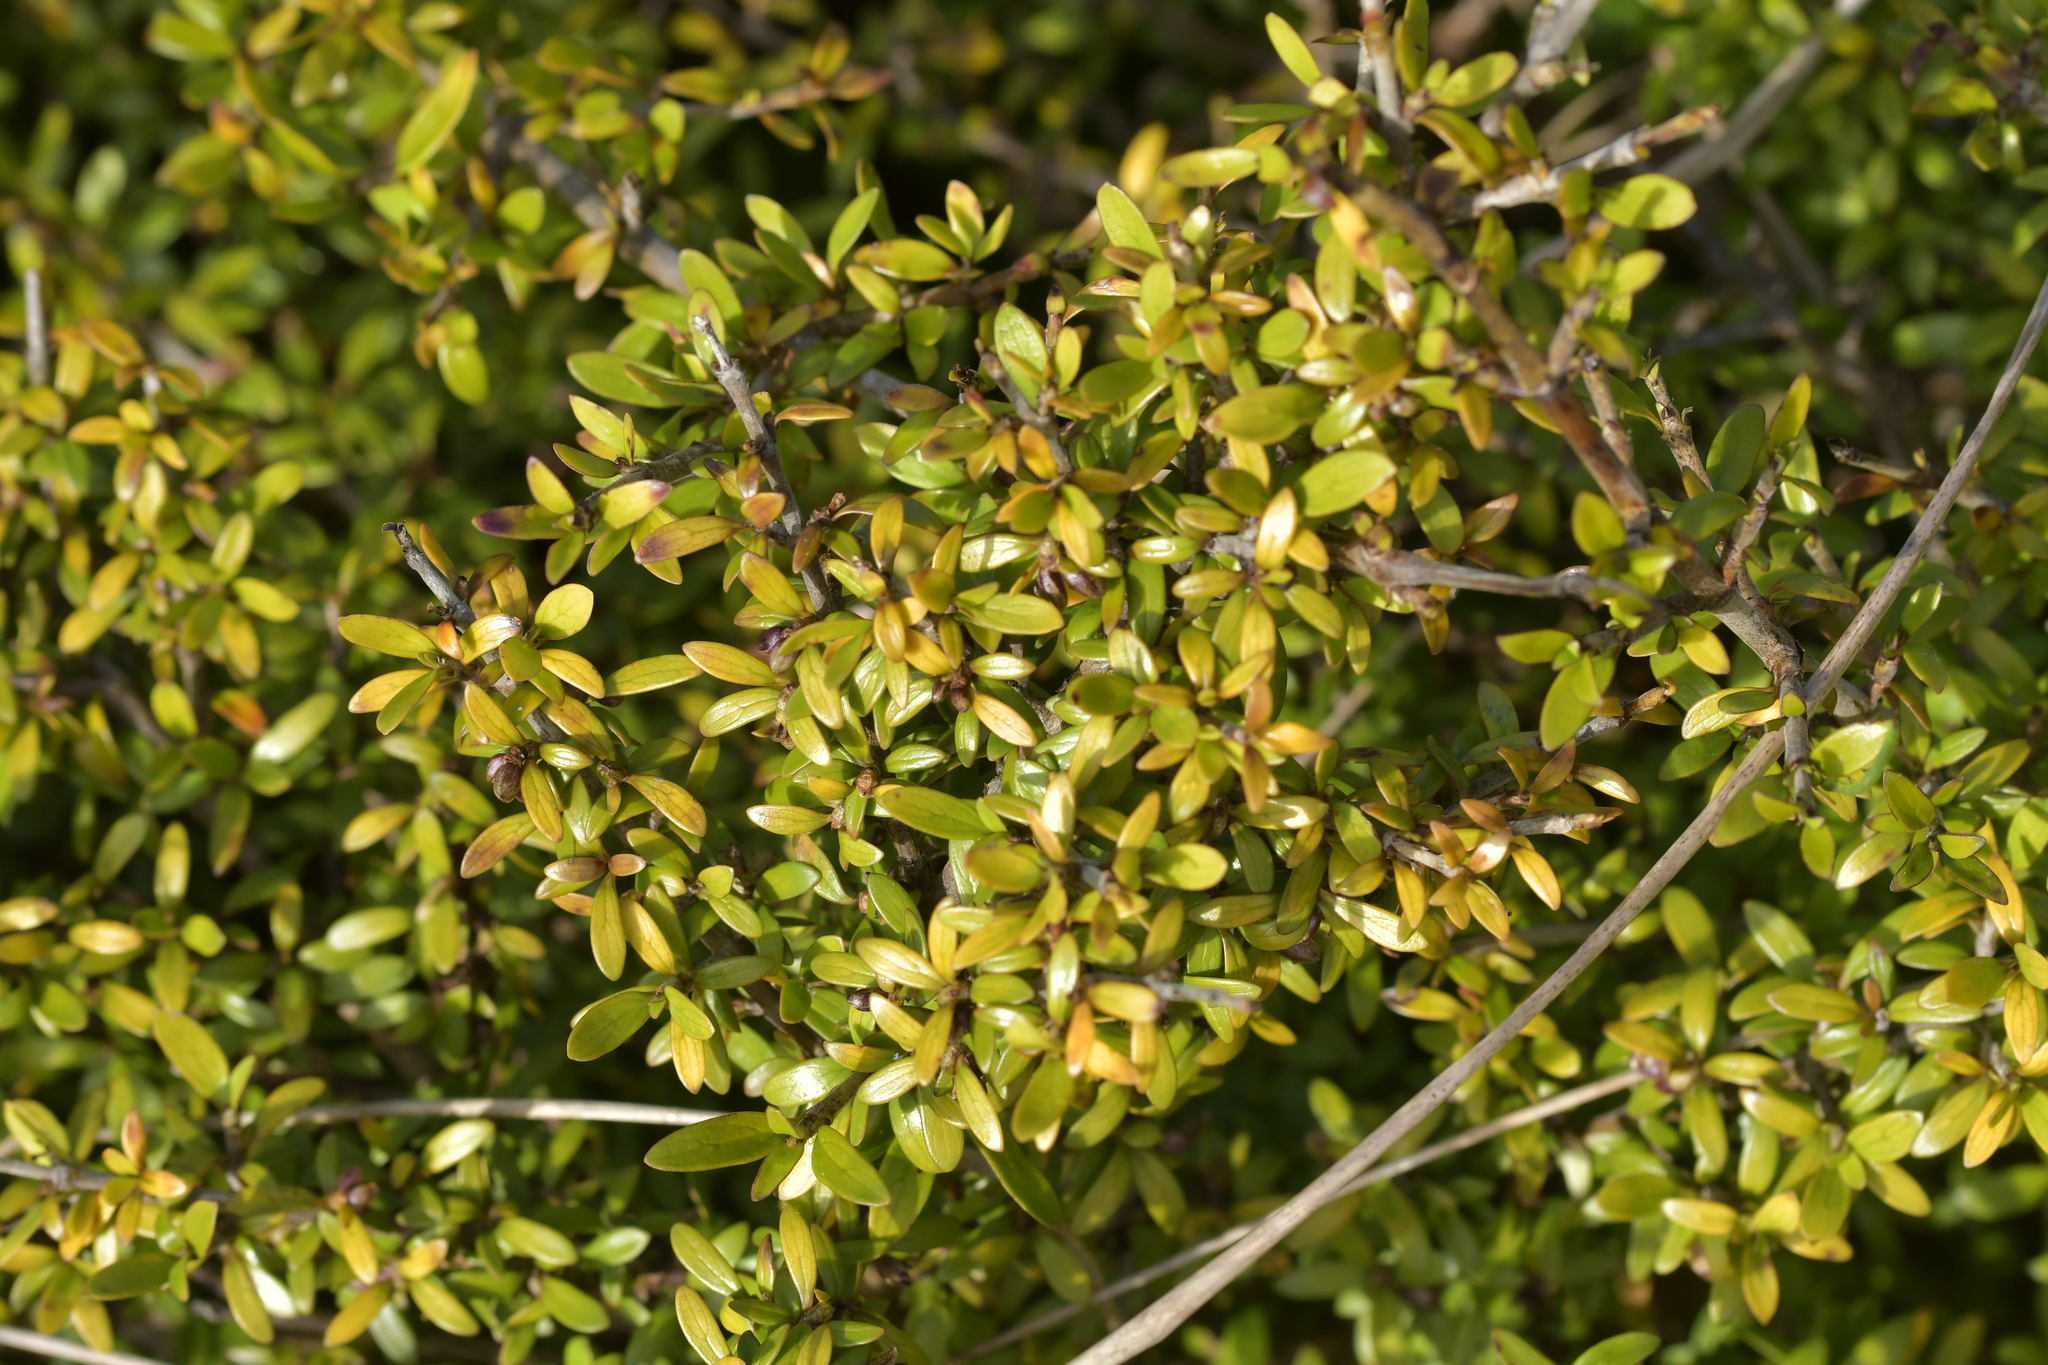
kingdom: Plantae
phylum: Tracheophyta
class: Magnoliopsida
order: Gentianales
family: Rubiaceae
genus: Coprosma
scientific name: Coprosma propinqua
